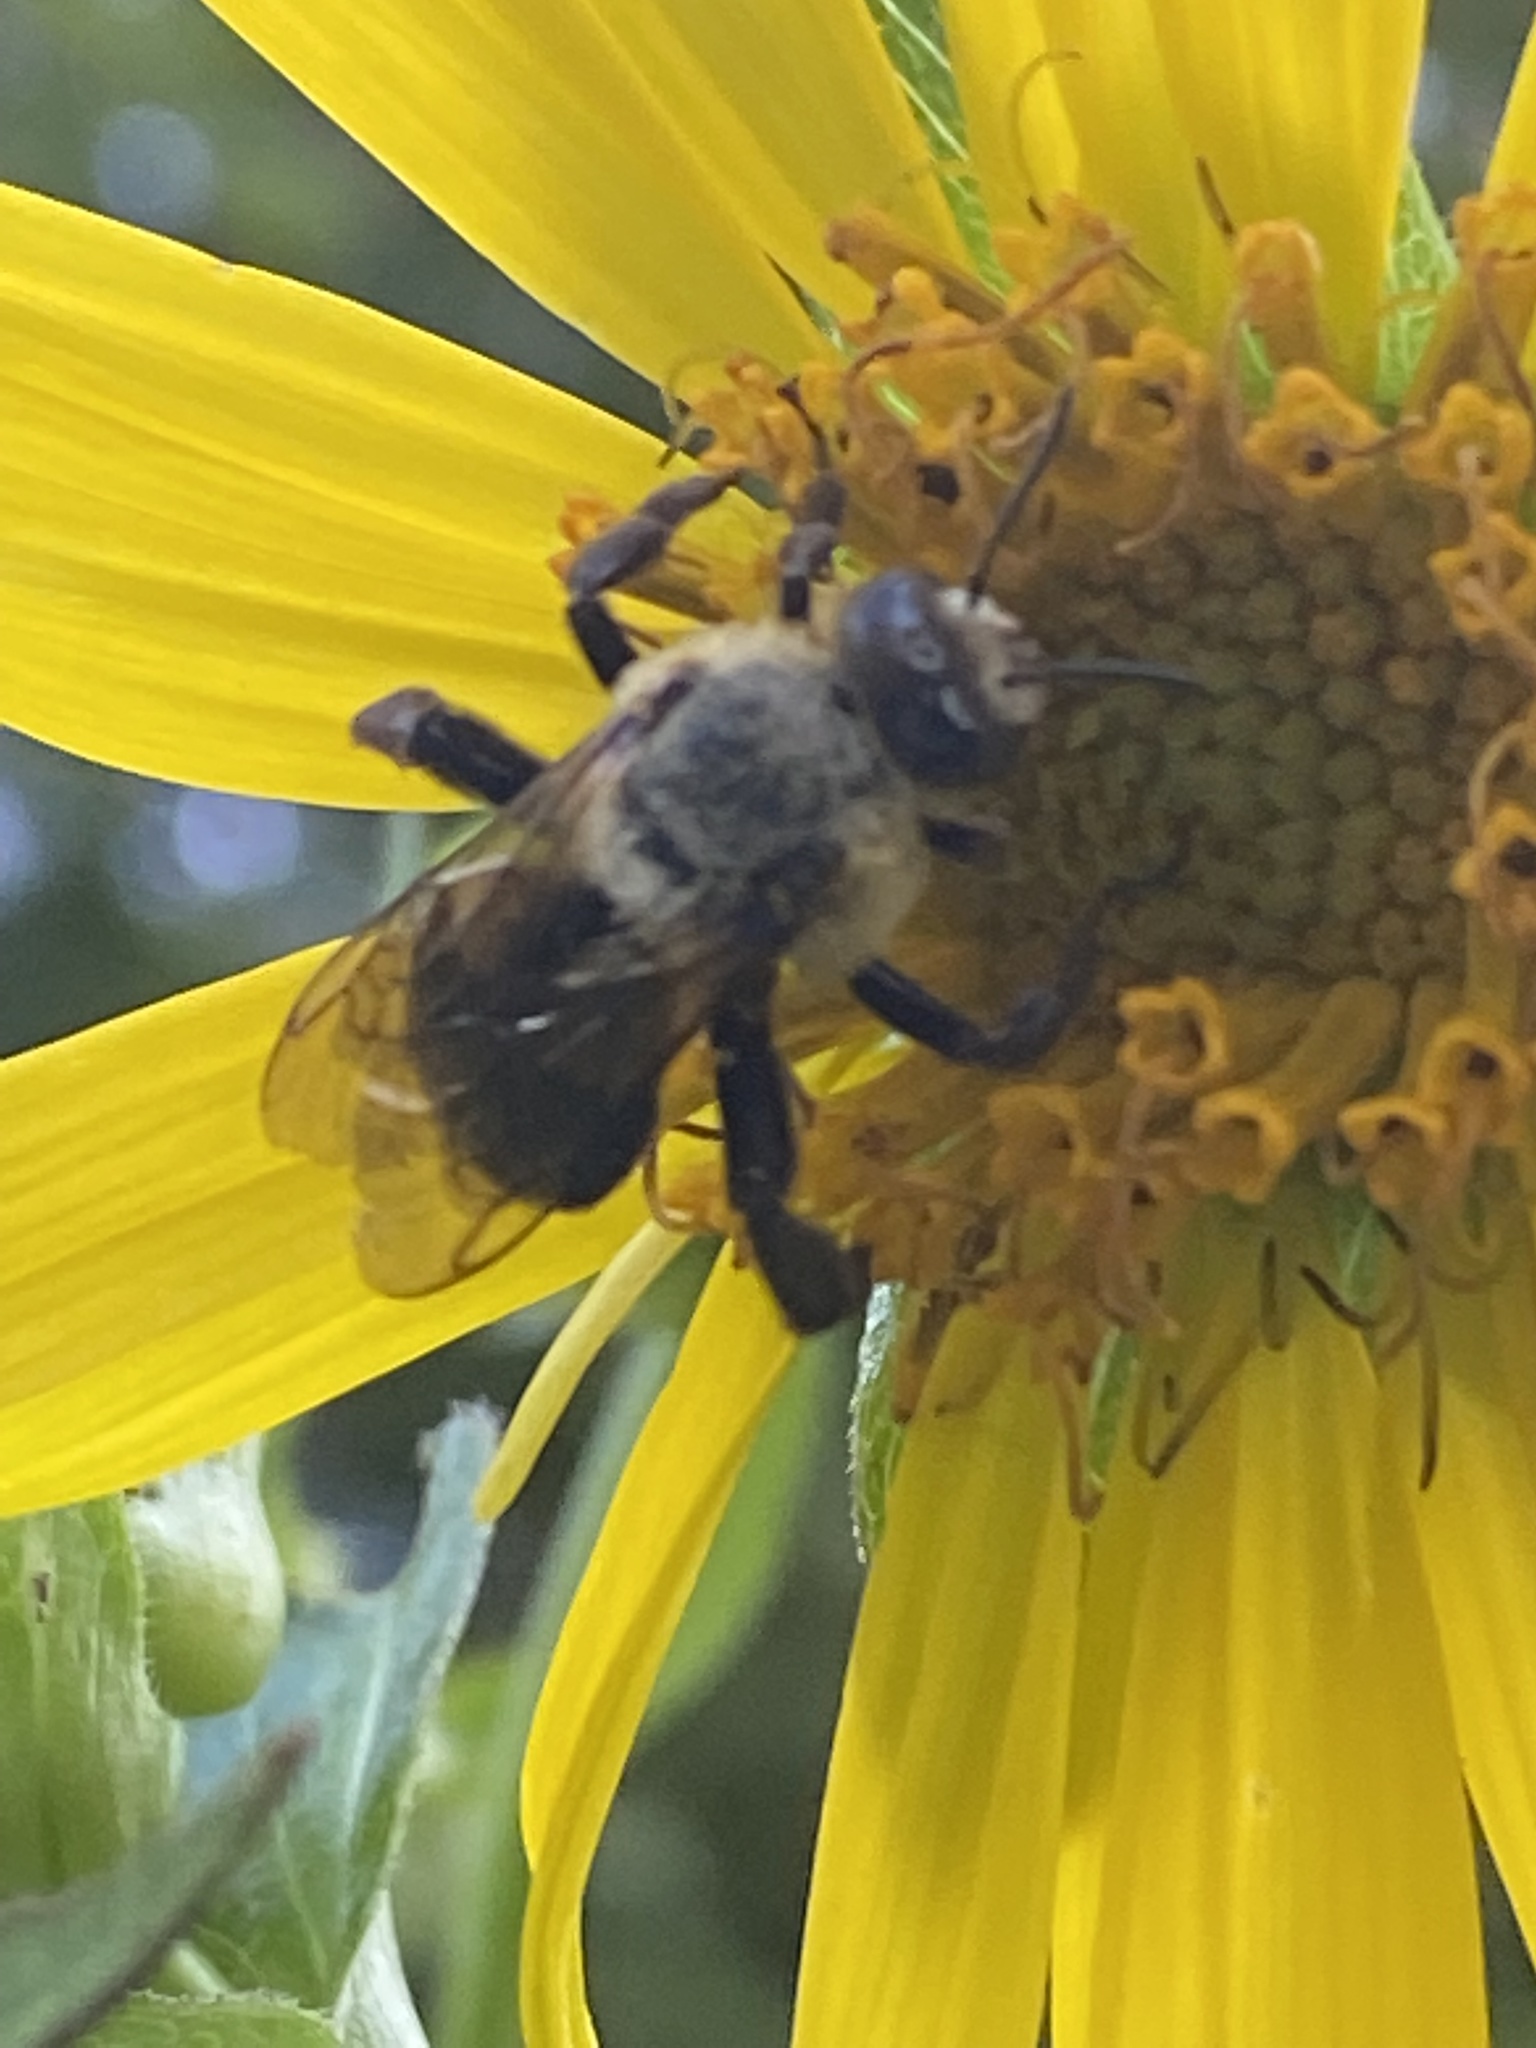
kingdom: Animalia
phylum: Arthropoda
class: Insecta
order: Hymenoptera
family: Apidae
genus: Ptilothrix
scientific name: Ptilothrix bombiformis
